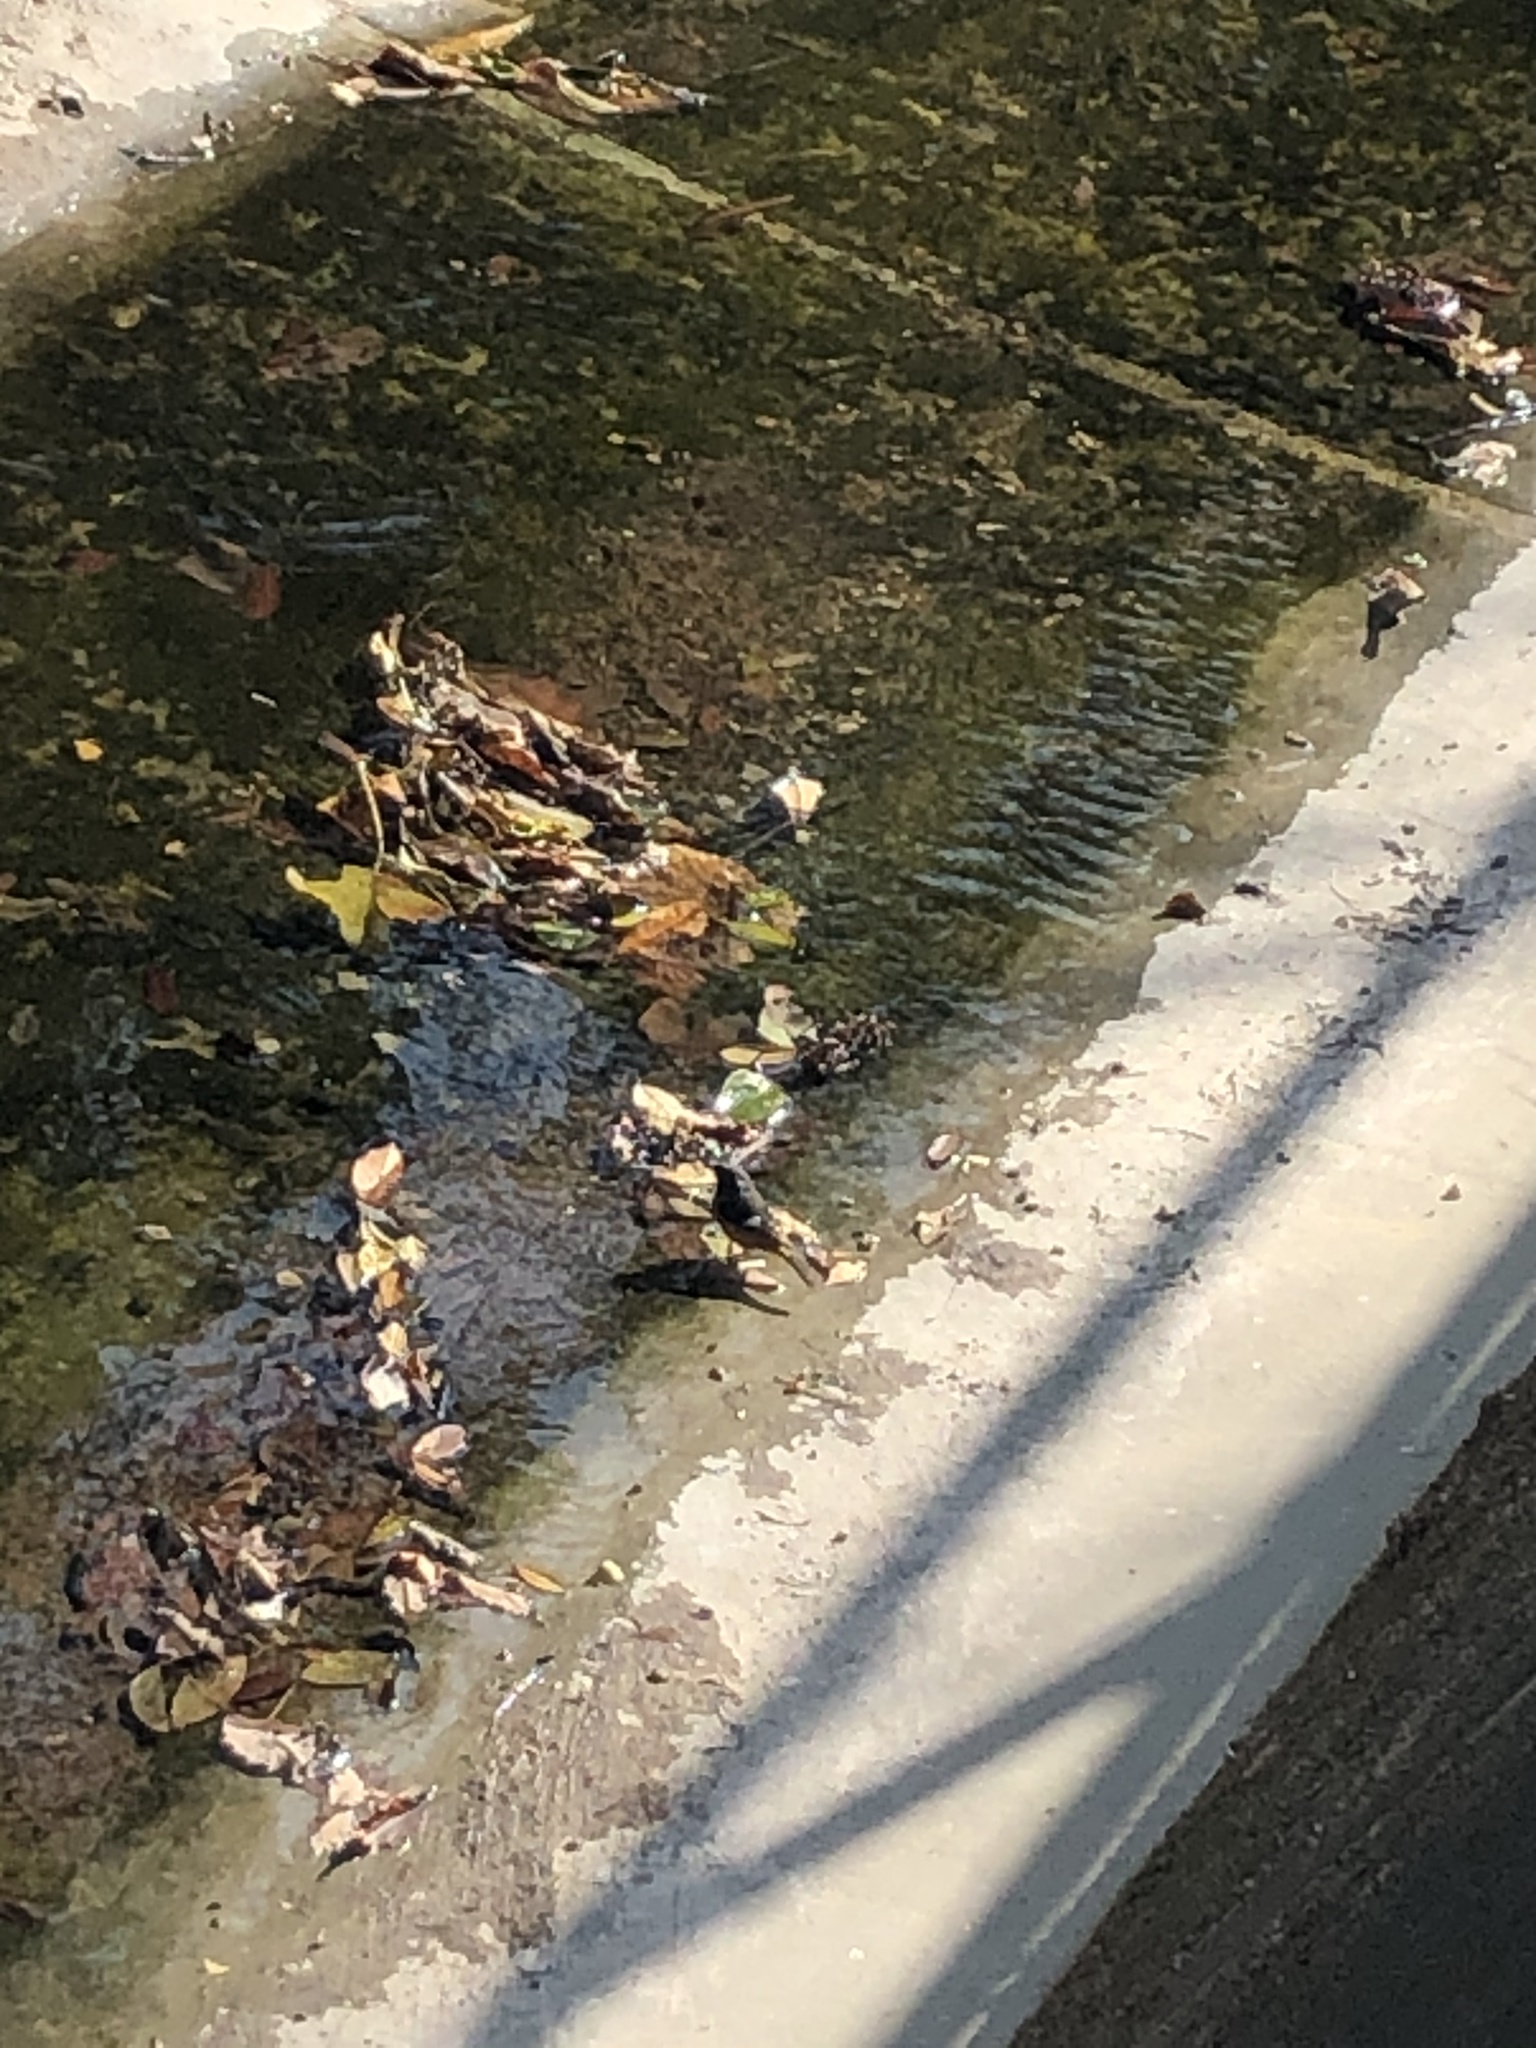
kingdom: Animalia
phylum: Chordata
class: Aves
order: Passeriformes
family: Muscicapidae
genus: Phoenicurus
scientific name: Phoenicurus auroreus
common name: Daurian redstart
